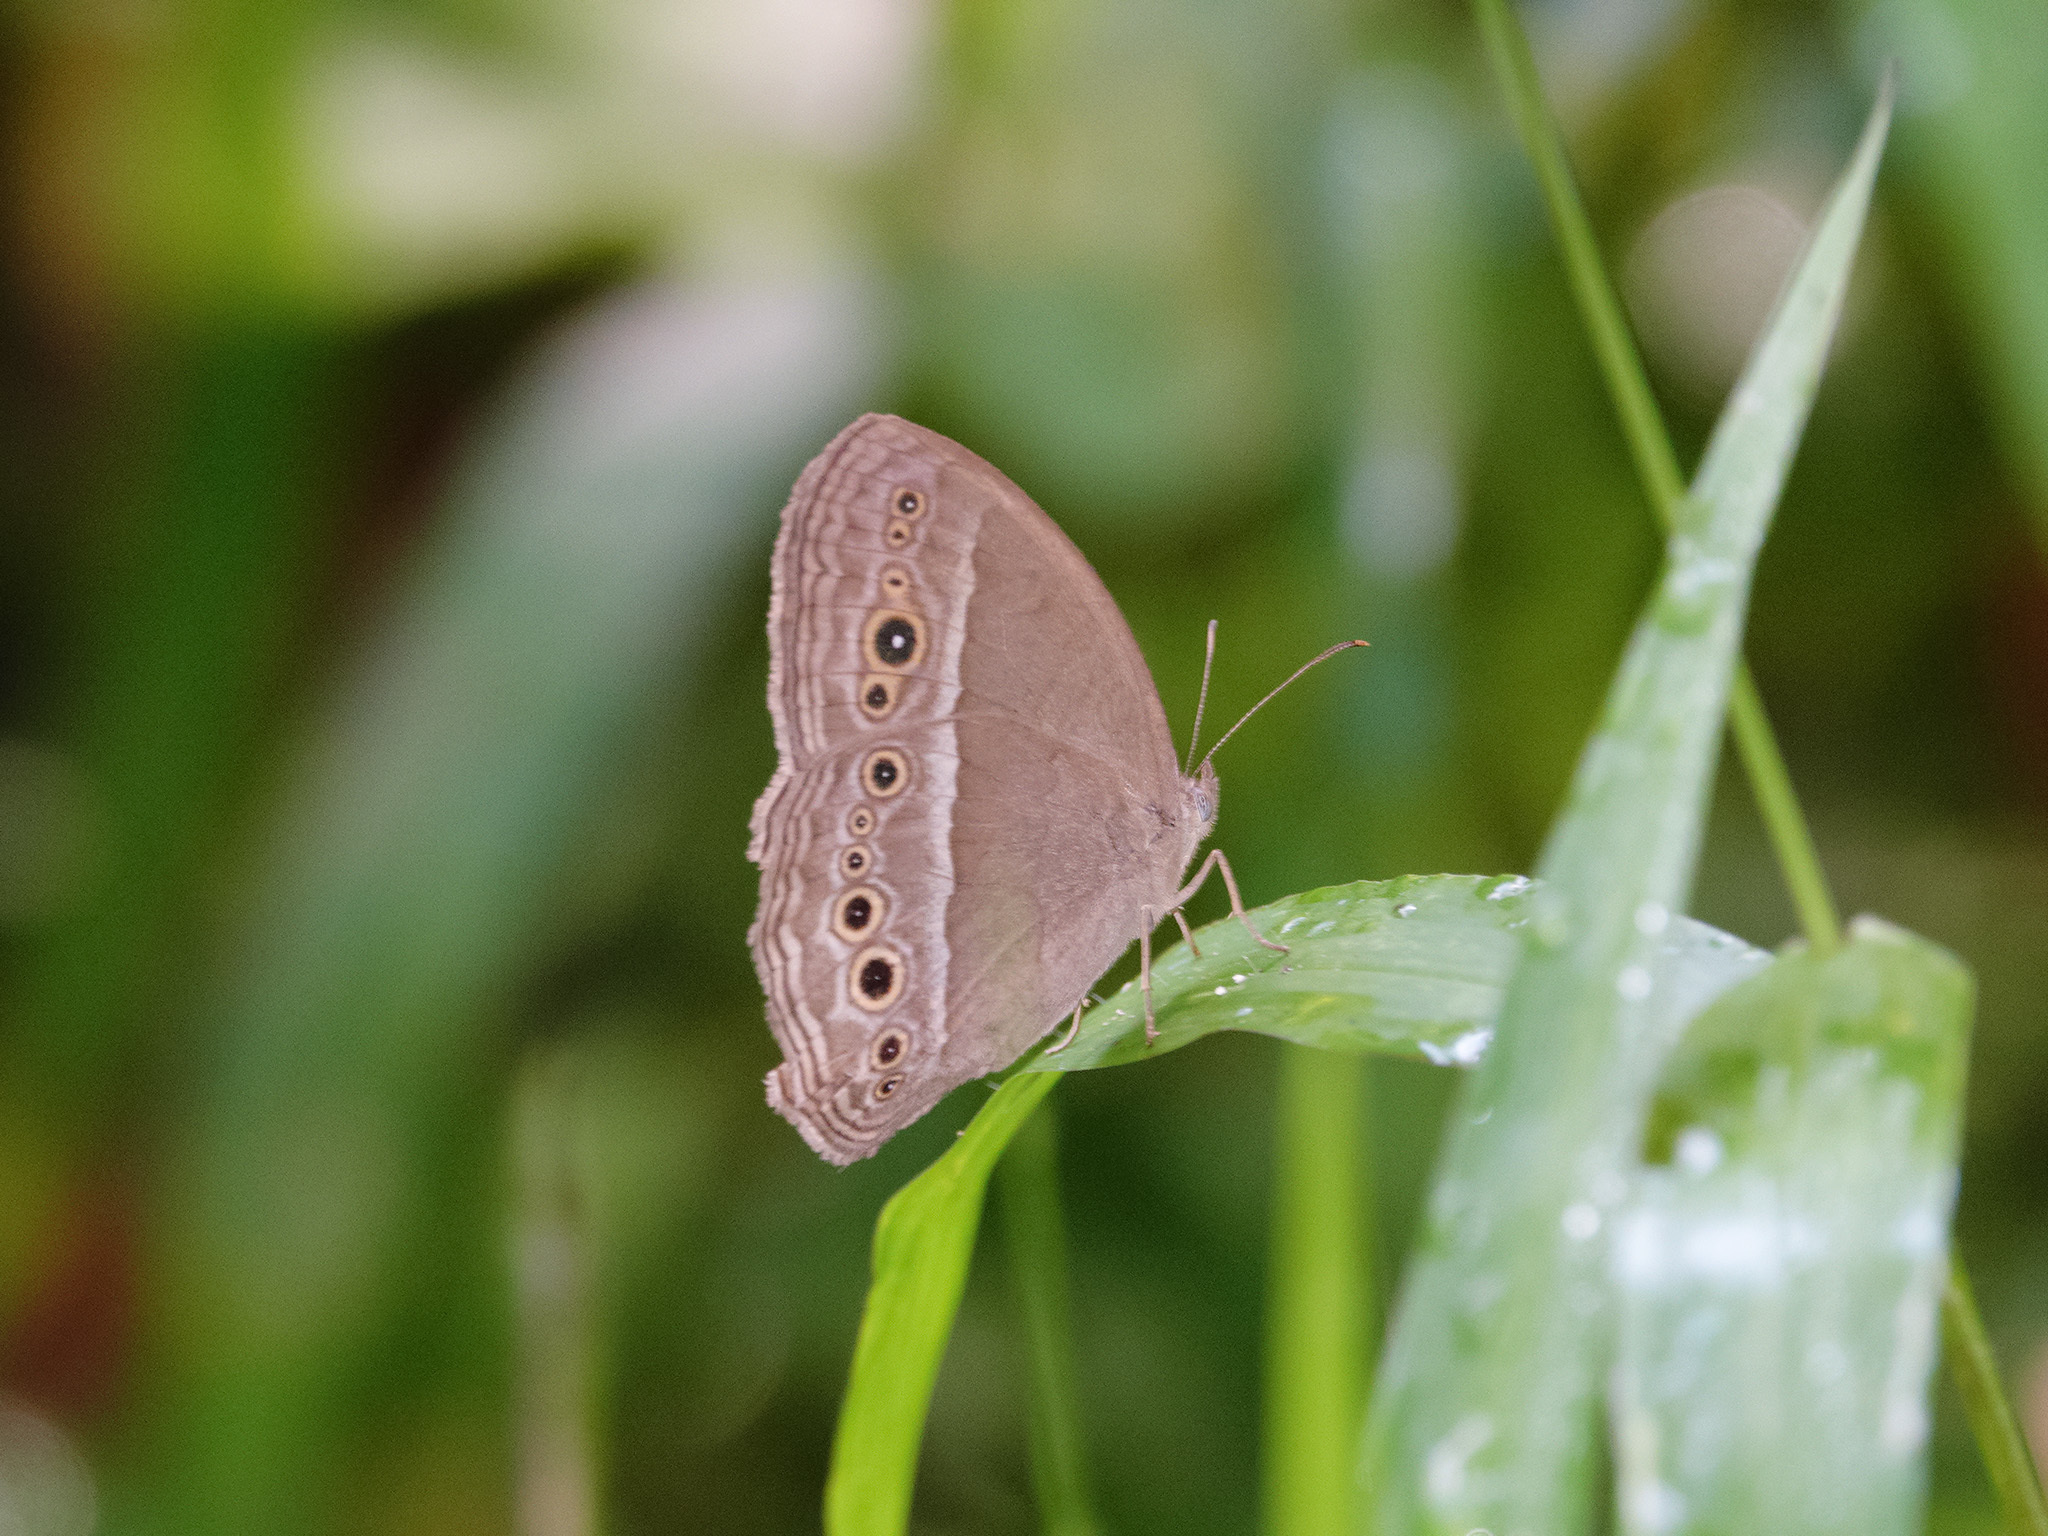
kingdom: Animalia
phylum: Arthropoda
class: Insecta
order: Lepidoptera
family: Nymphalidae
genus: Mycalesis
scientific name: Mycalesis perseoides
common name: Burmese bushbrown
